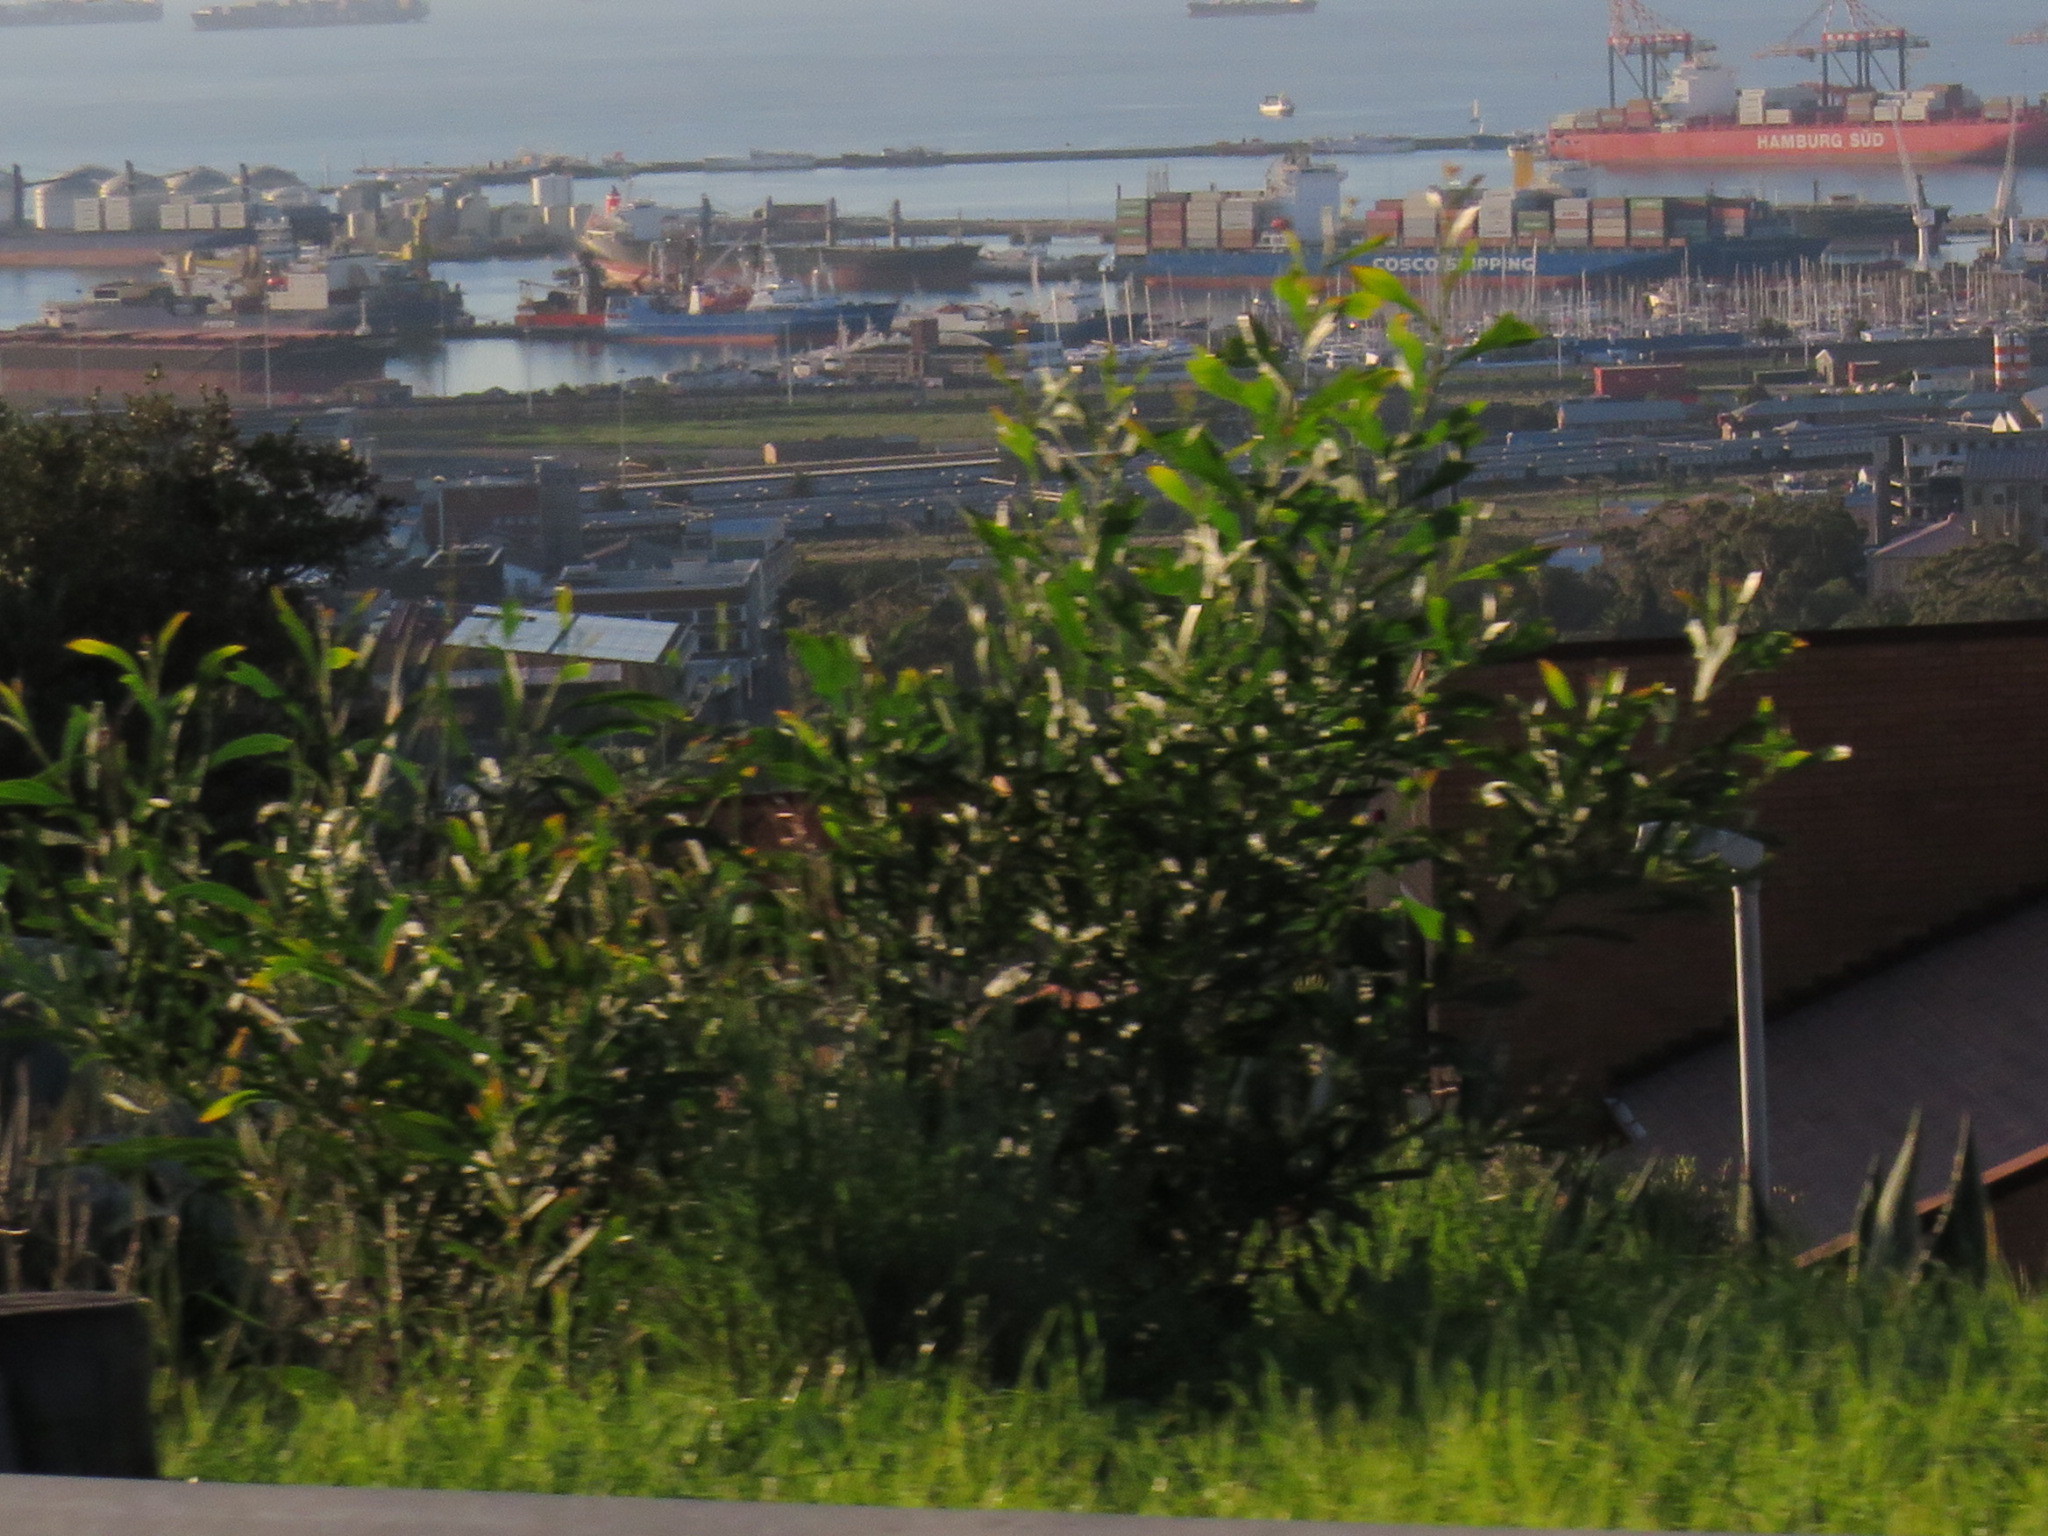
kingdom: Plantae
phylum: Tracheophyta
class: Magnoliopsida
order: Fabales
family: Fabaceae
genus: Acacia
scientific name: Acacia saligna
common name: Orange wattle
